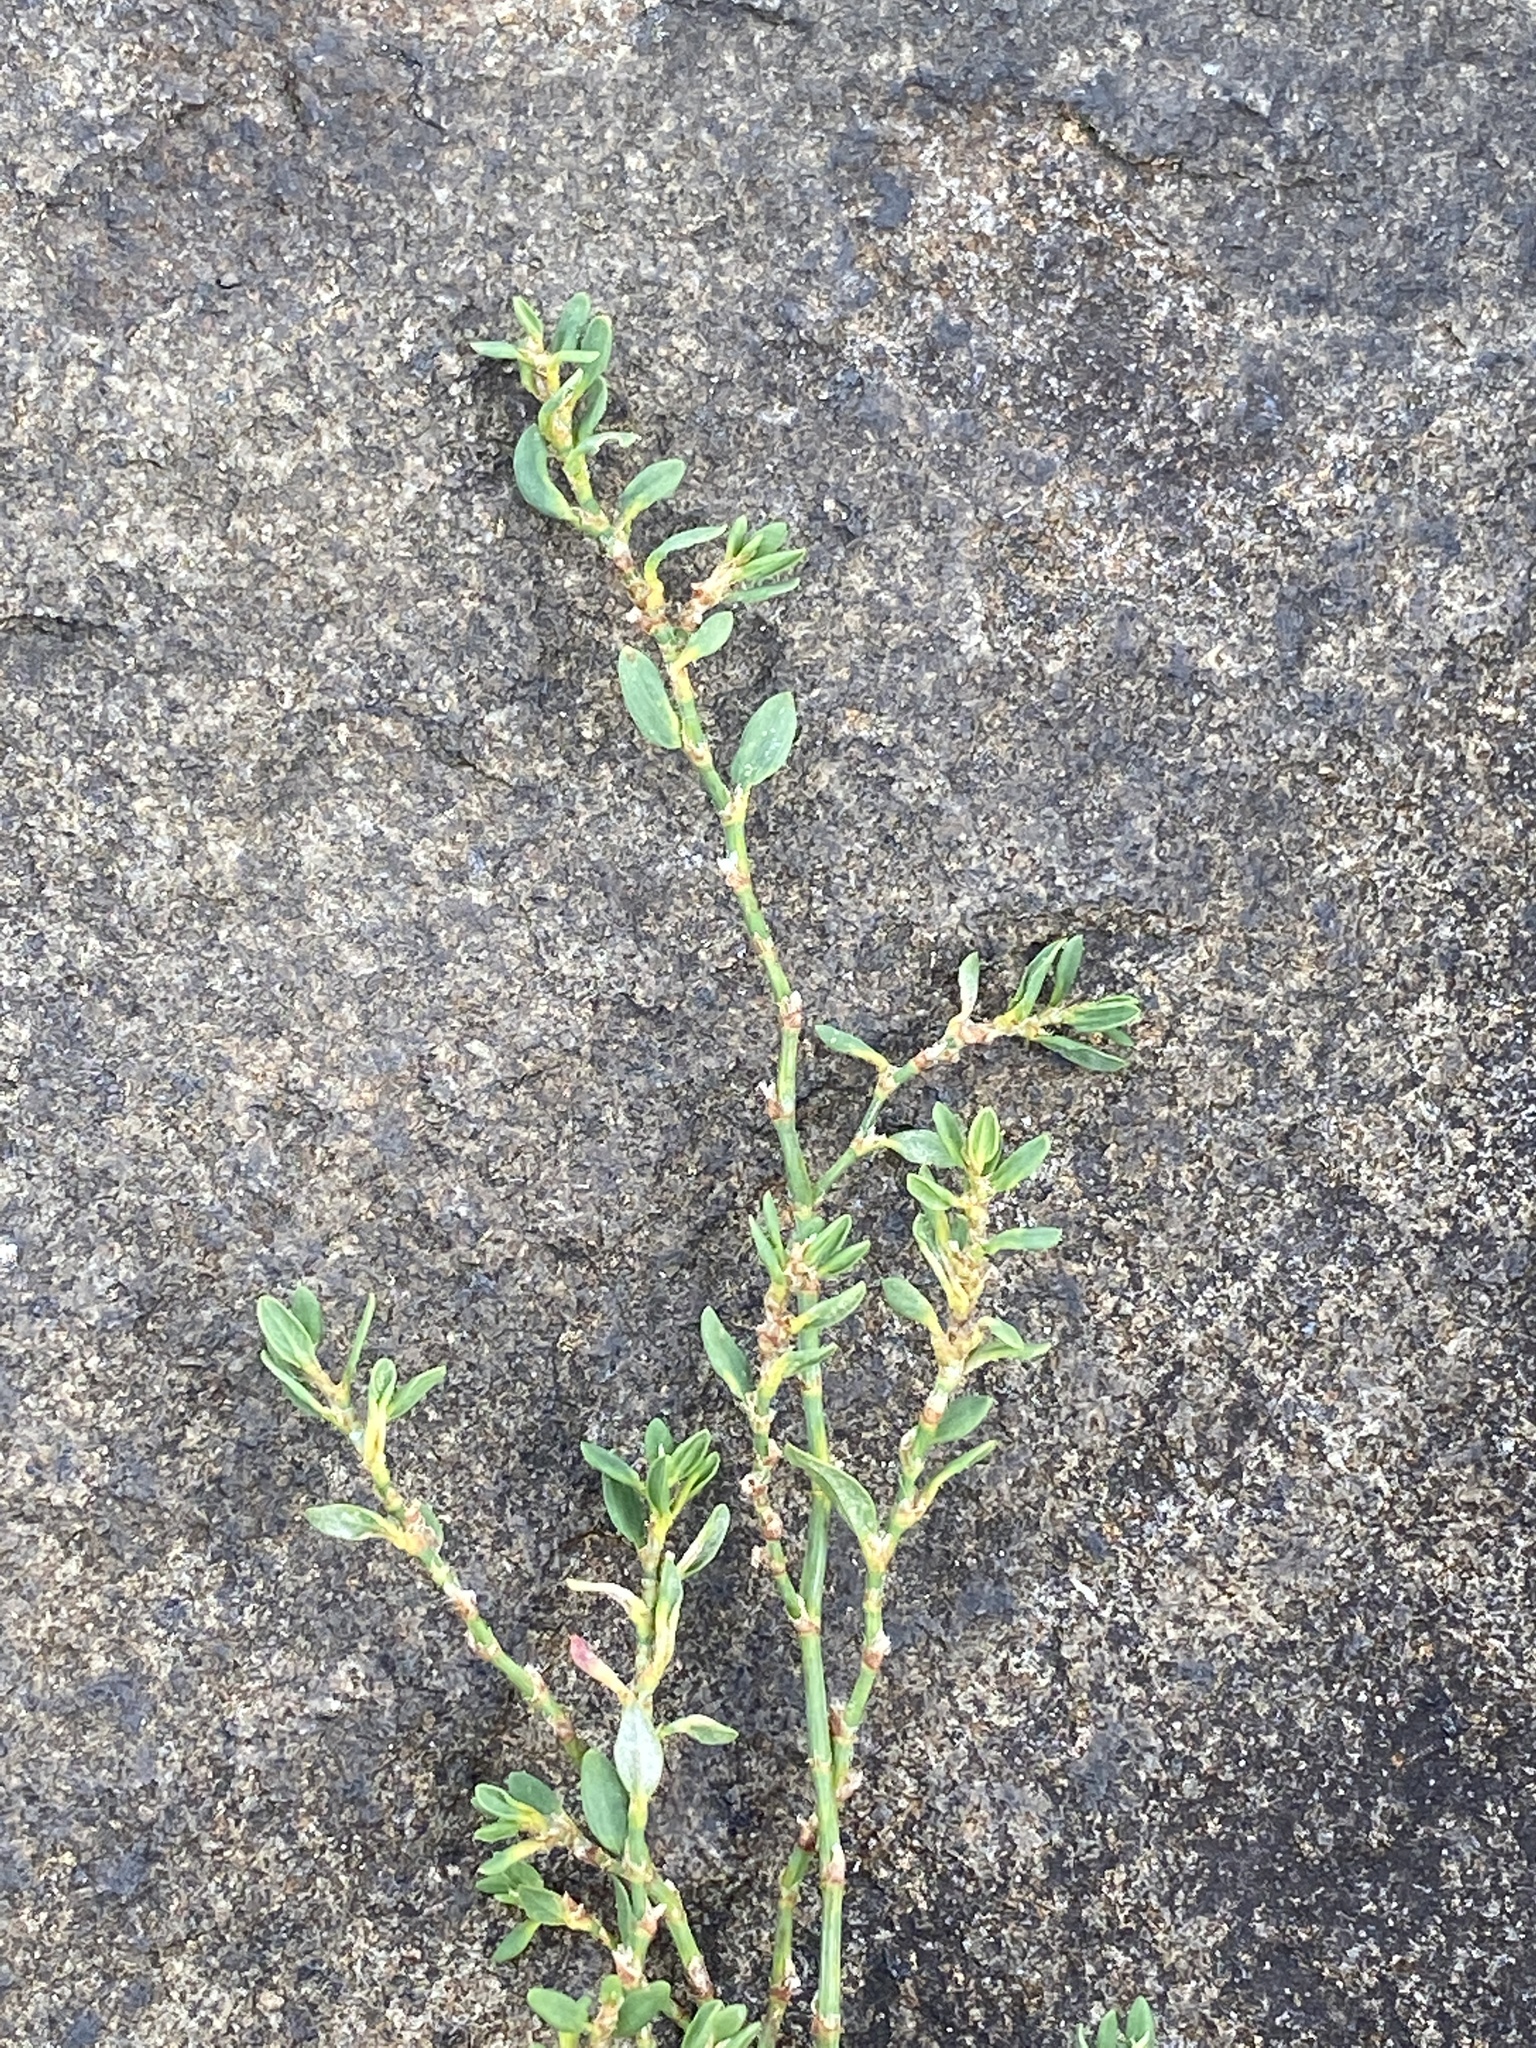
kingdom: Plantae
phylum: Tracheophyta
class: Magnoliopsida
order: Caryophyllales
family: Polygonaceae
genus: Polygonum
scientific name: Polygonum aviculare
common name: Prostrate knotweed
